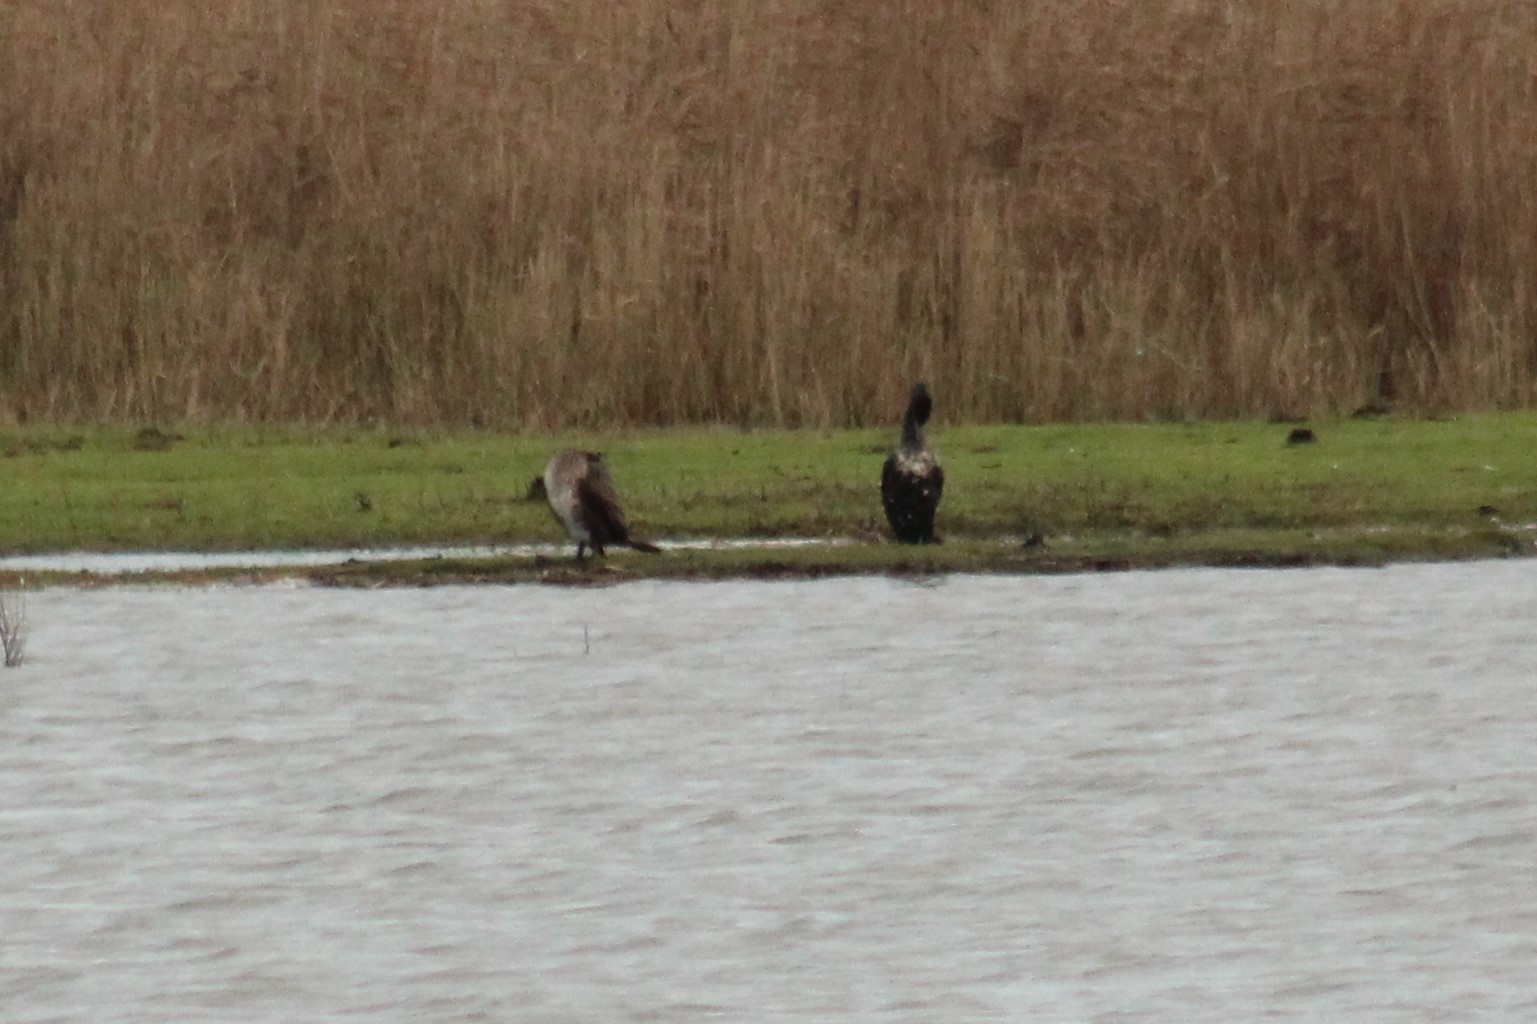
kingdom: Animalia
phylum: Chordata
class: Aves
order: Suliformes
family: Phalacrocoracidae
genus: Phalacrocorax
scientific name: Phalacrocorax carbo
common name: Great cormorant
